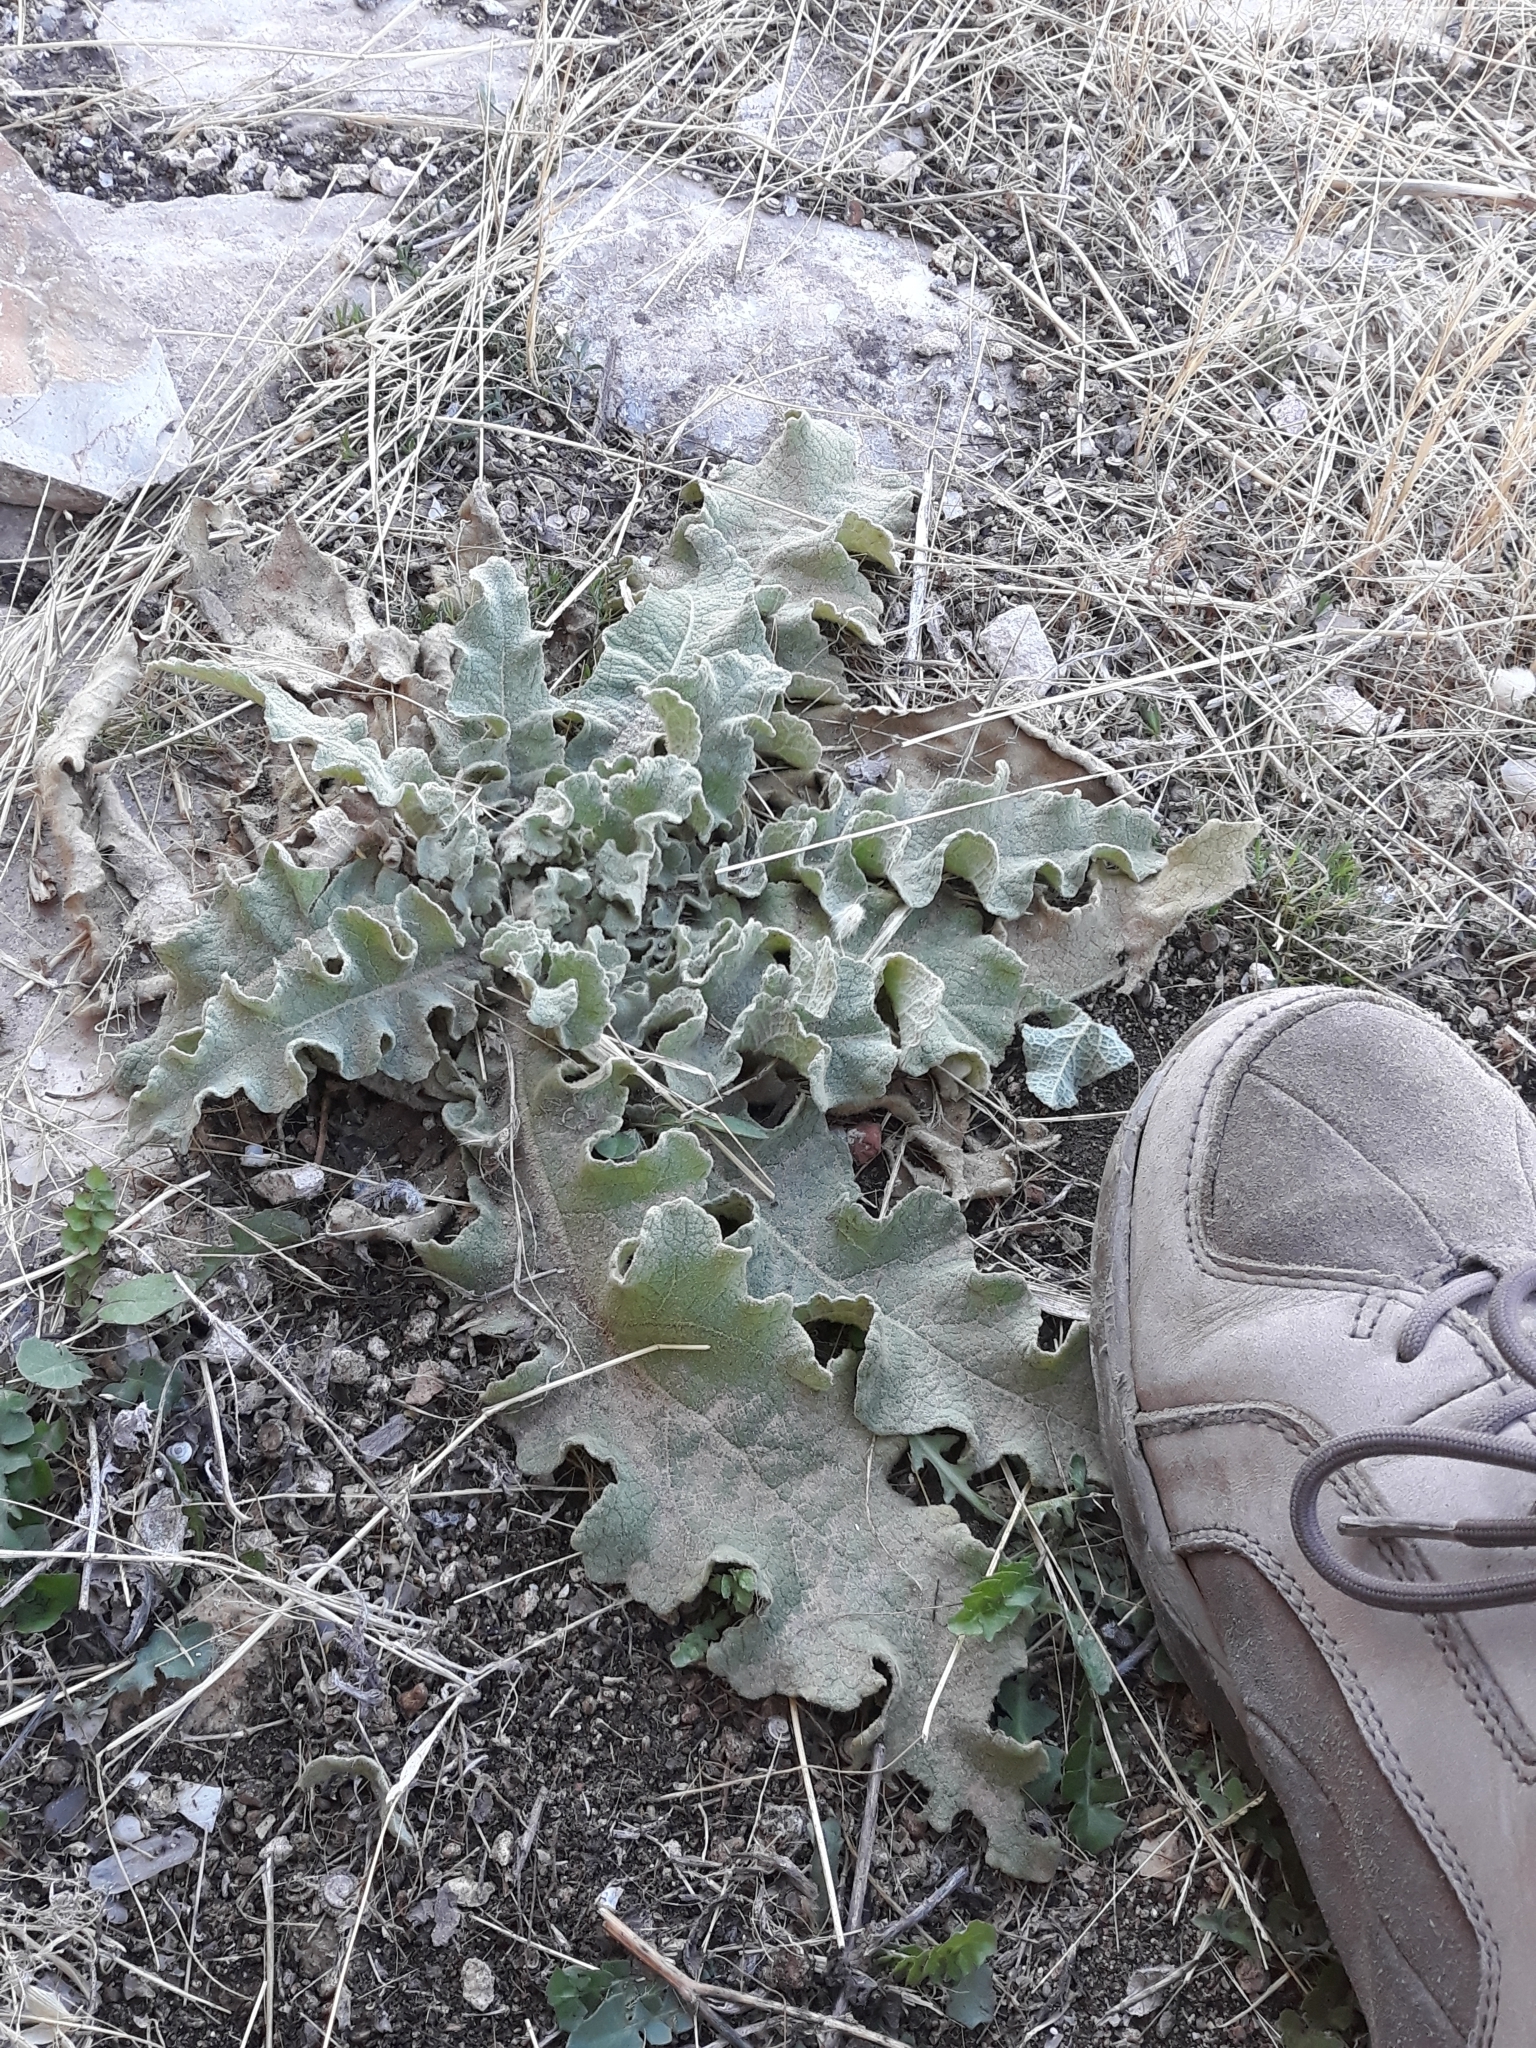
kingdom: Plantae
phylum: Tracheophyta
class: Magnoliopsida
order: Lamiales
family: Scrophulariaceae
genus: Verbascum
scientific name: Verbascum sinuatum
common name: Wavyleaf mullein
